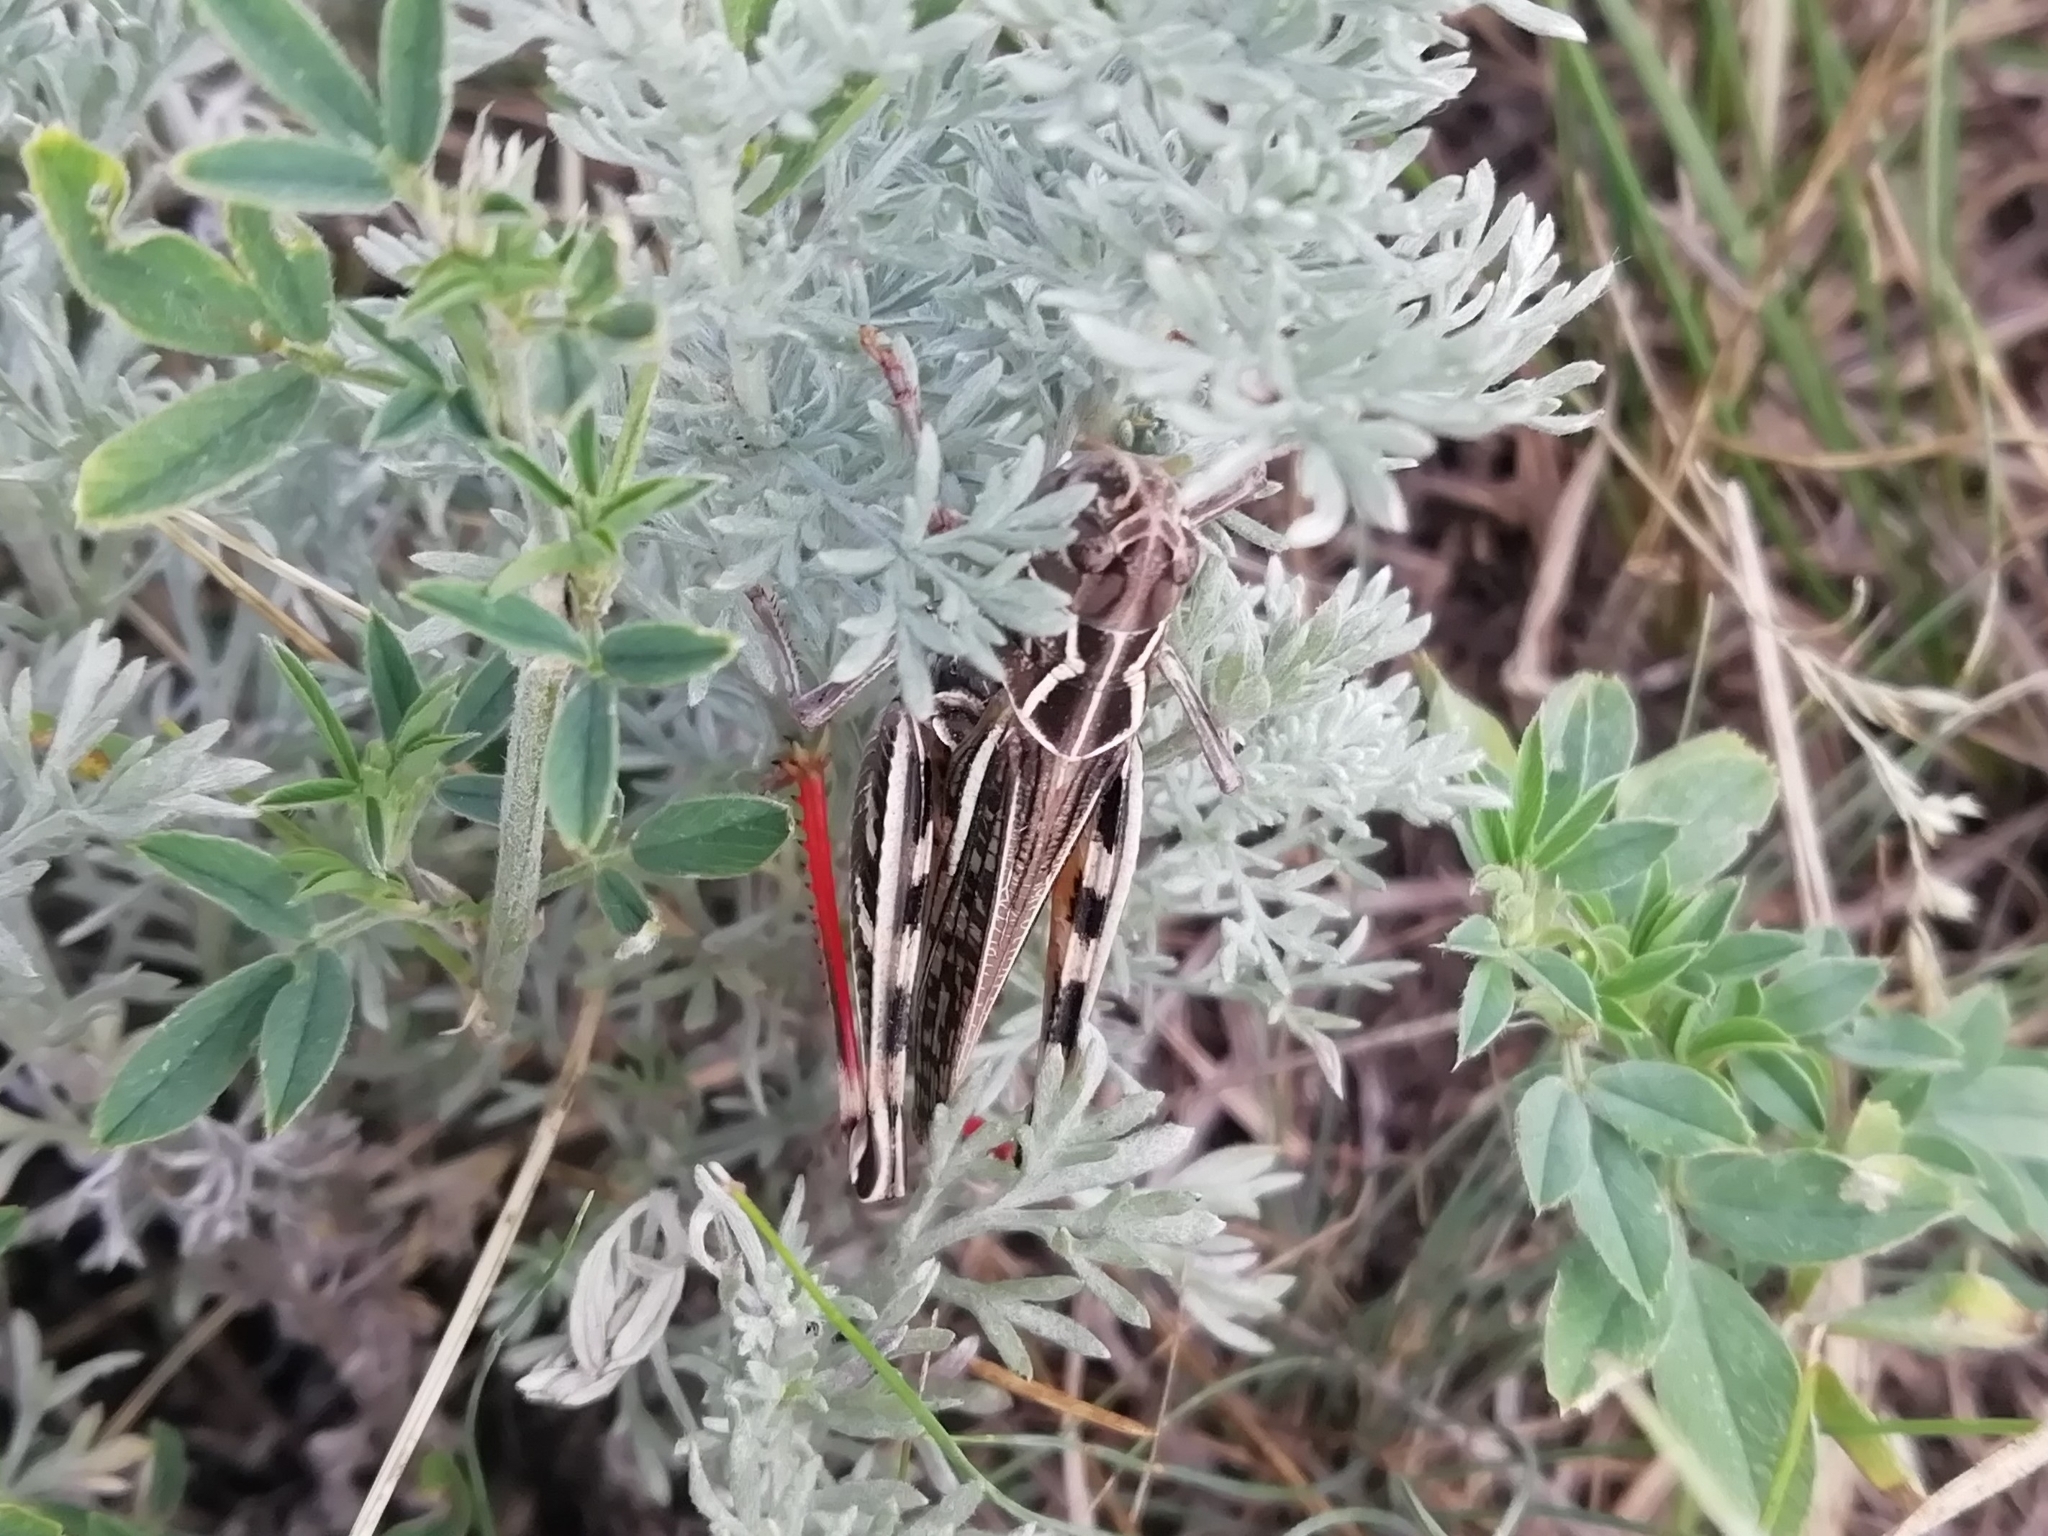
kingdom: Animalia
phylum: Arthropoda
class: Insecta
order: Orthoptera
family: Acrididae
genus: Arcyptera
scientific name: Arcyptera microptera
